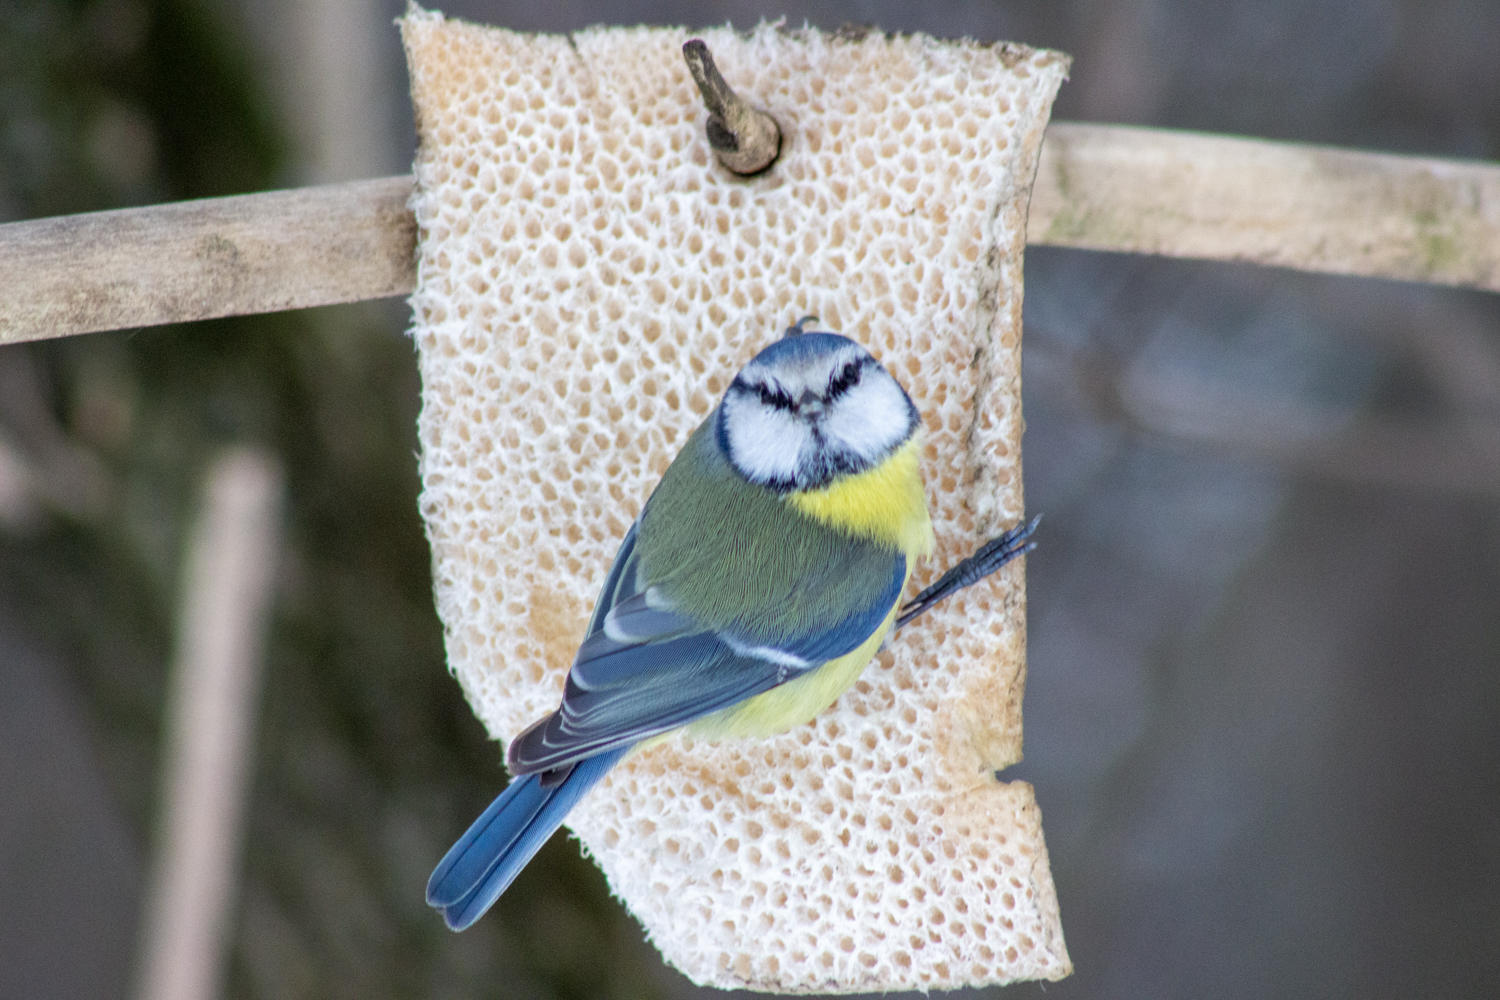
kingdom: Animalia
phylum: Chordata
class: Aves
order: Passeriformes
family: Paridae
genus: Cyanistes
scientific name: Cyanistes caeruleus
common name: Eurasian blue tit
